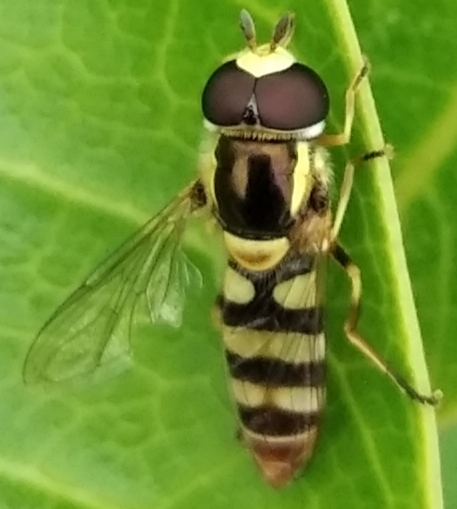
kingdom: Animalia
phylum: Arthropoda
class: Insecta
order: Diptera
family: Syrphidae
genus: Ischiodon
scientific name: Ischiodon scutellaris
